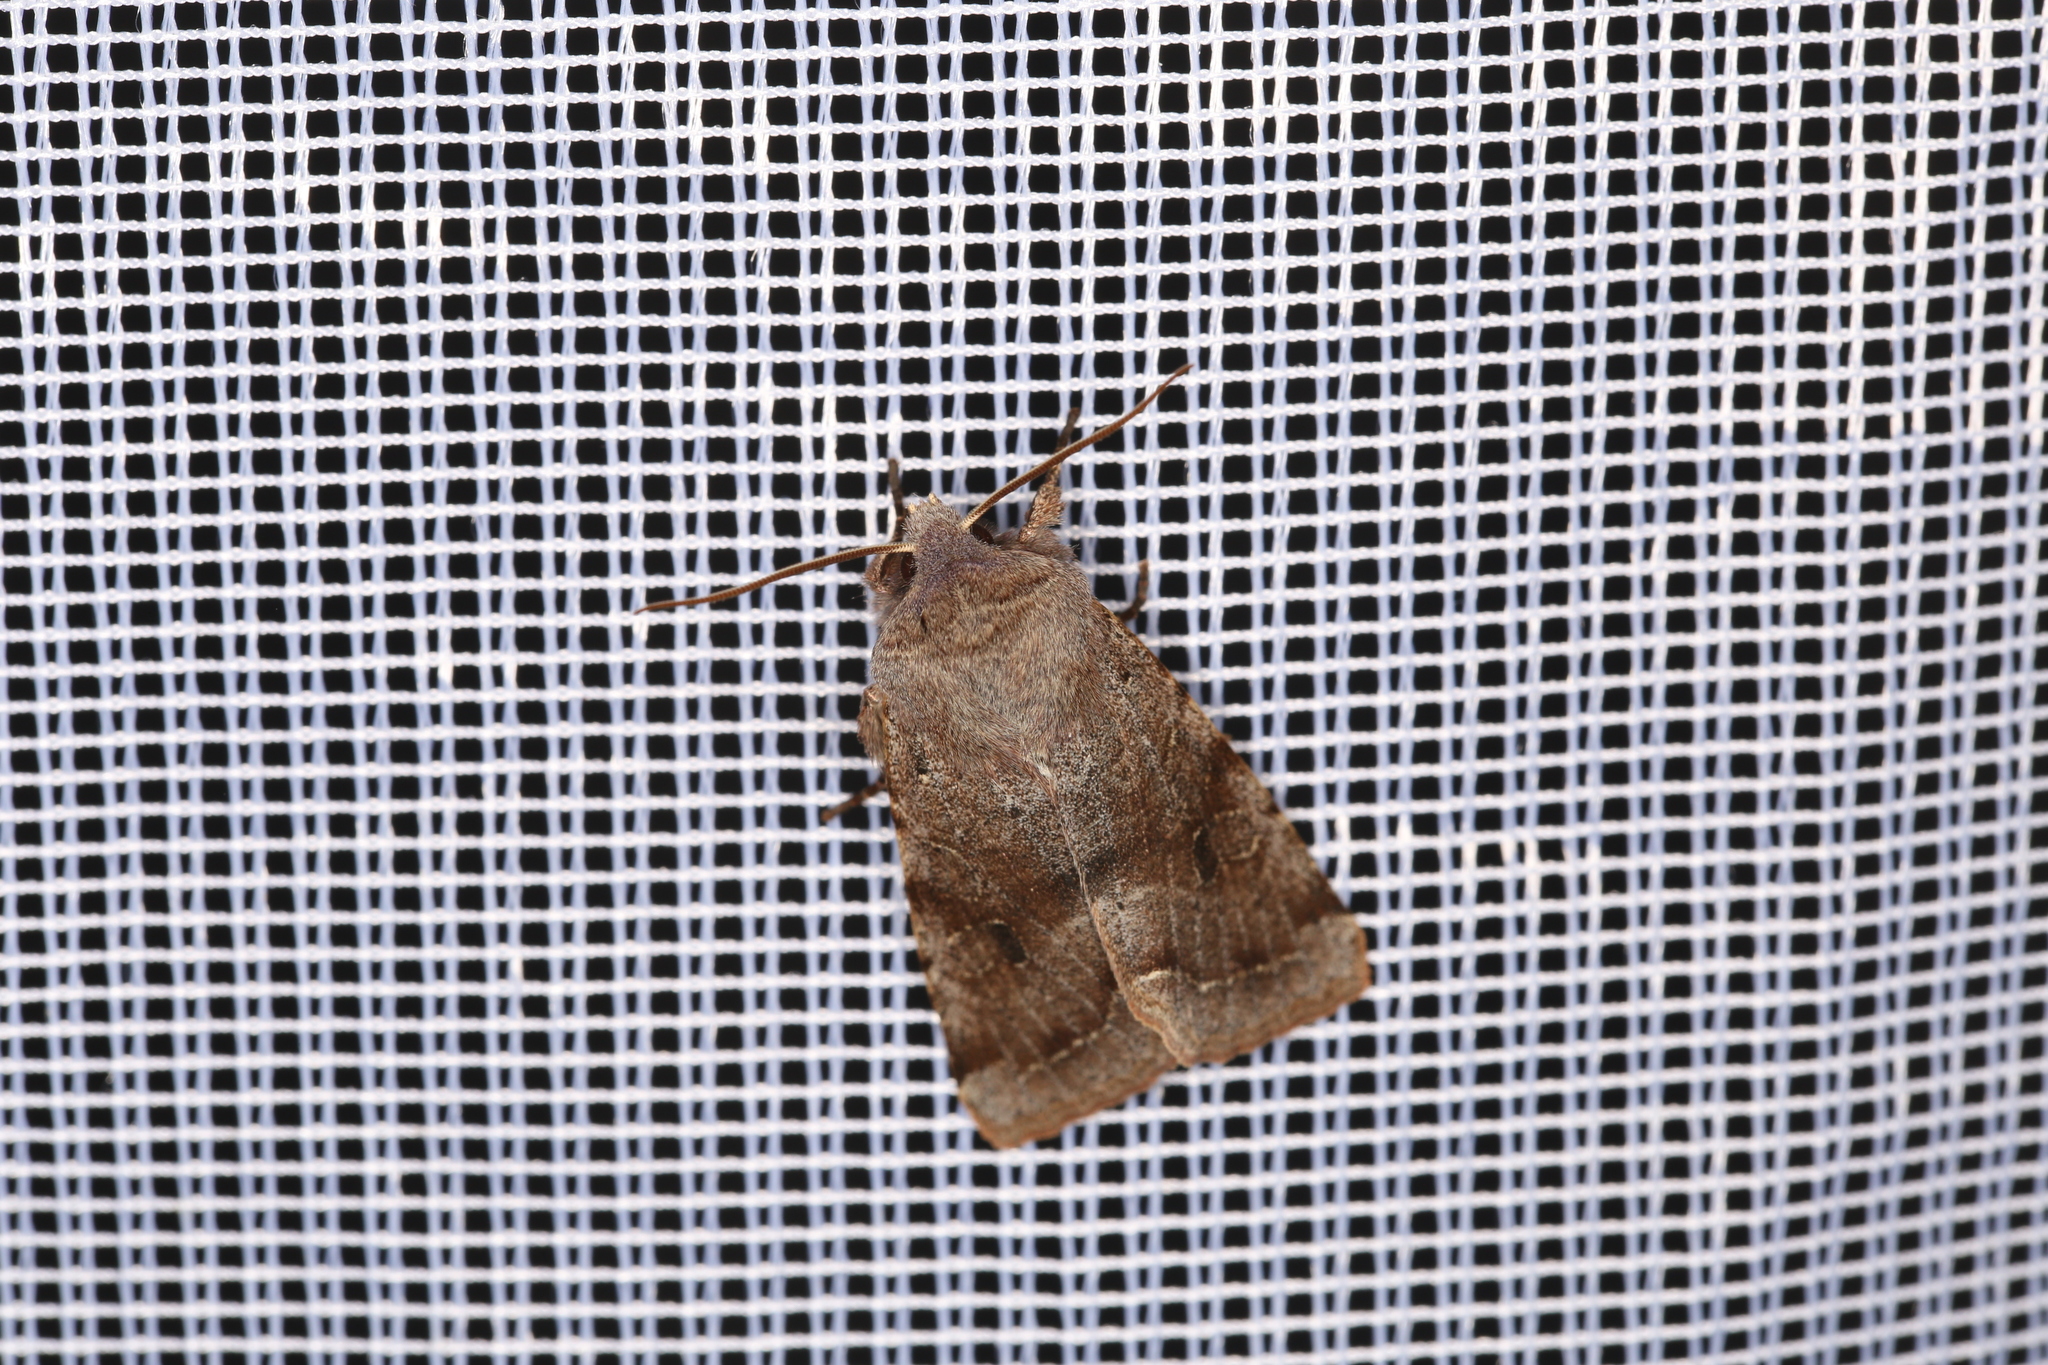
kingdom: Animalia
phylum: Arthropoda
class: Insecta
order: Lepidoptera
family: Noctuidae
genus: Orthosia
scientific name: Orthosia incerta
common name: Clouded drab
